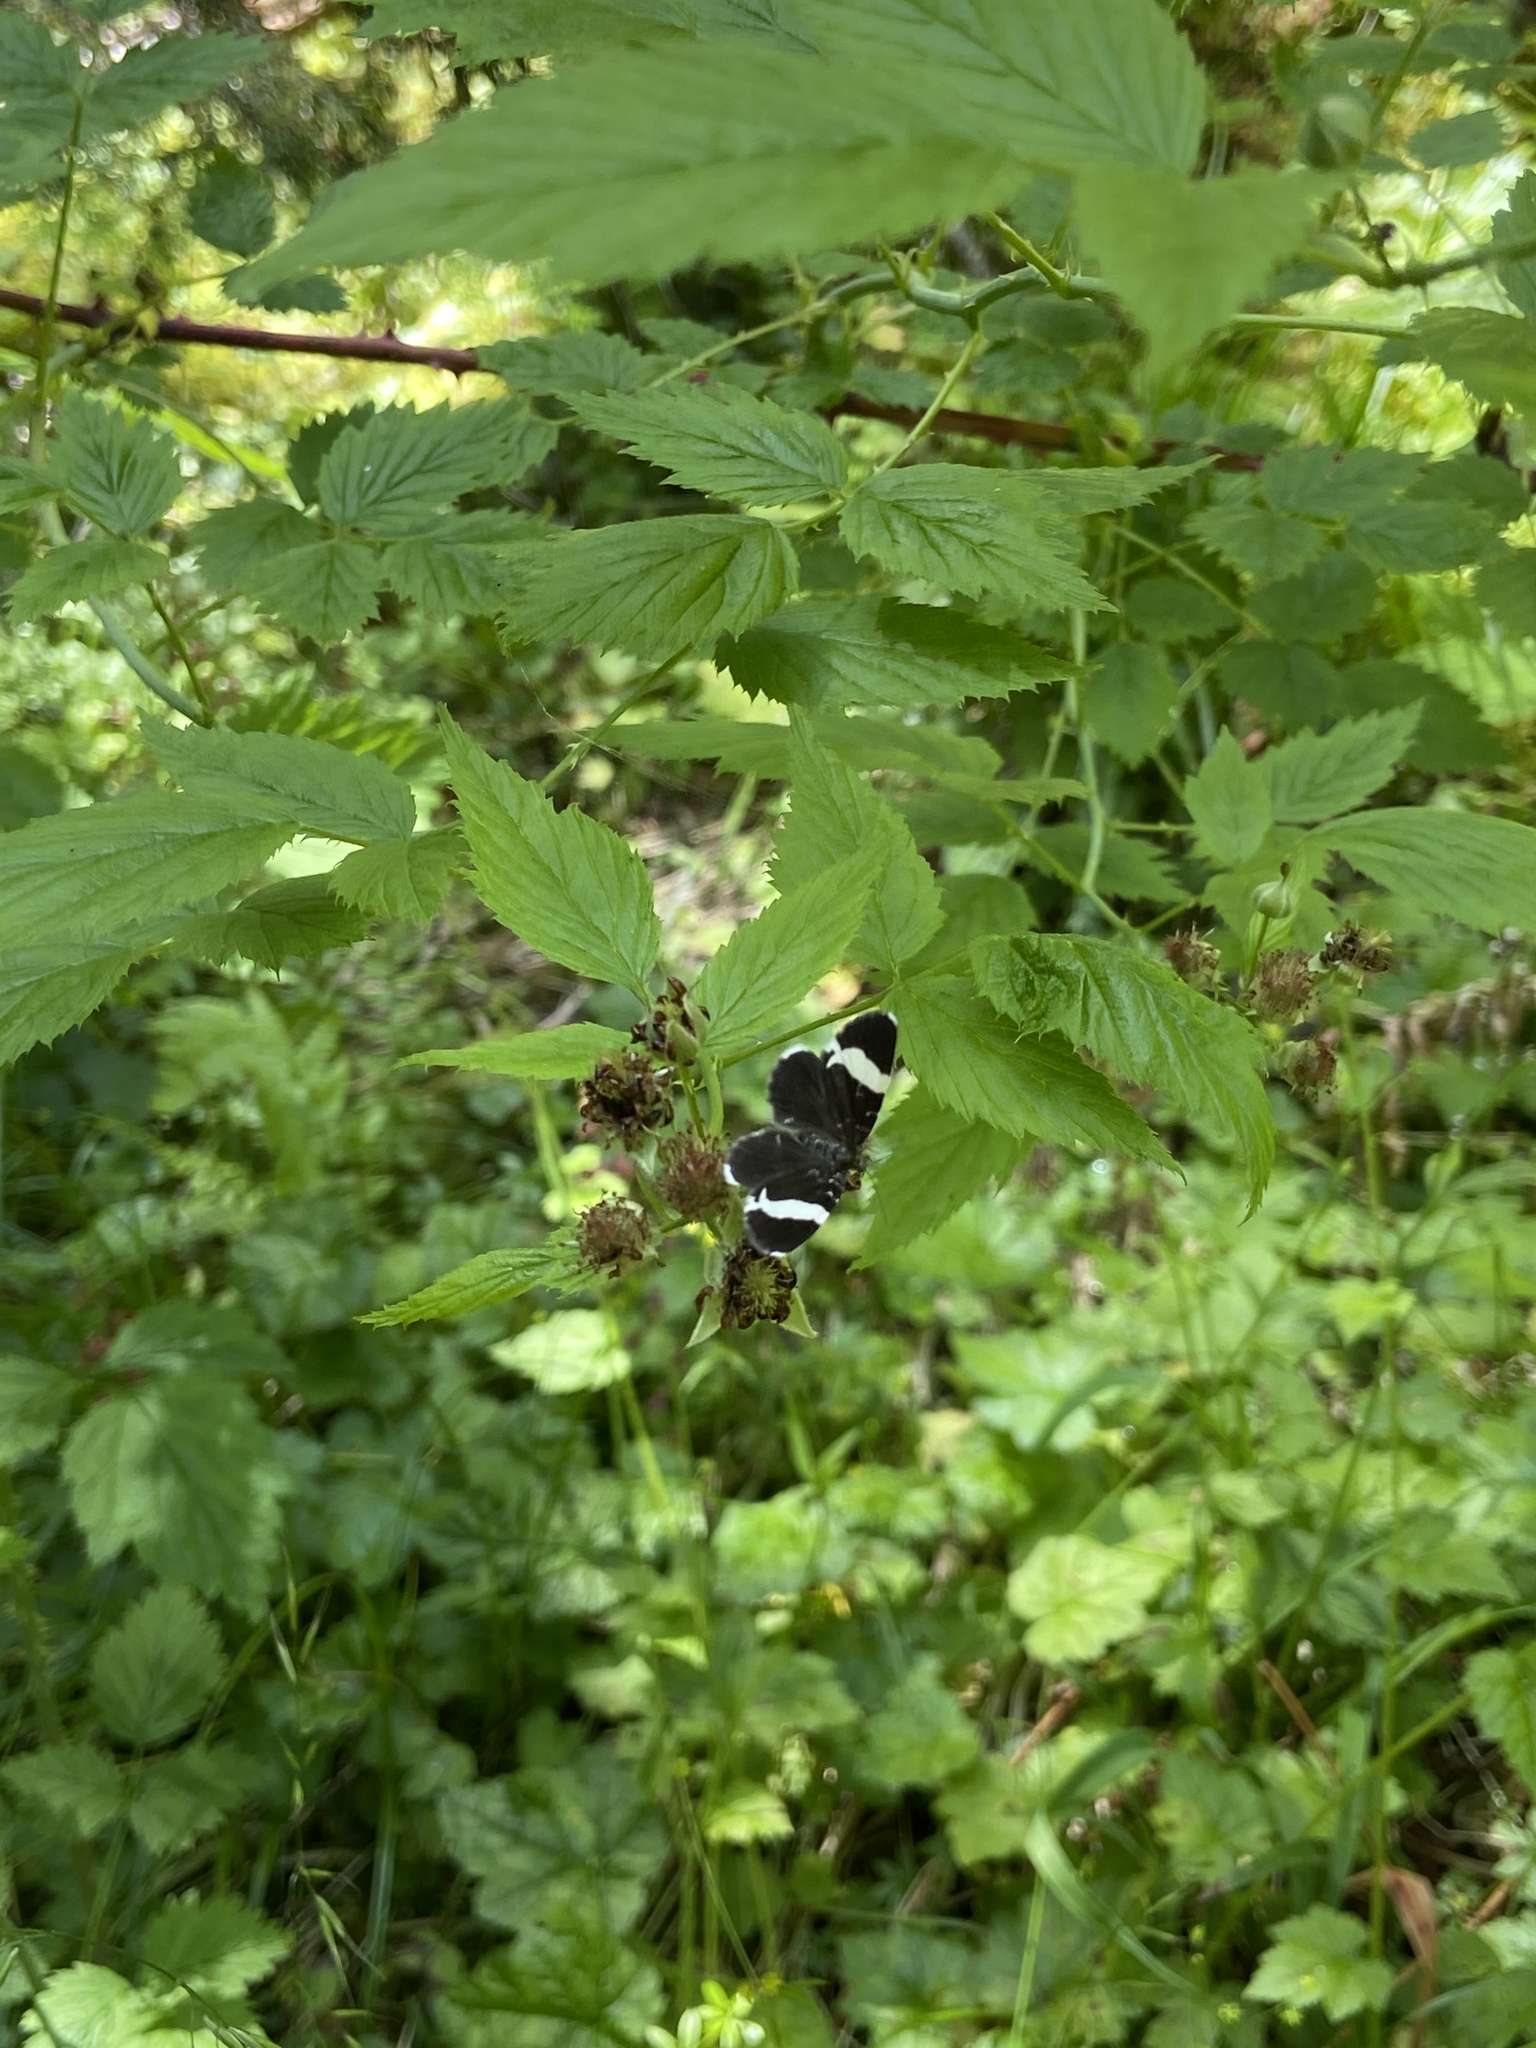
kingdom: Animalia
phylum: Arthropoda
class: Insecta
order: Lepidoptera
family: Geometridae
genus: Trichodezia
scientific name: Trichodezia albovittata
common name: White striped black
